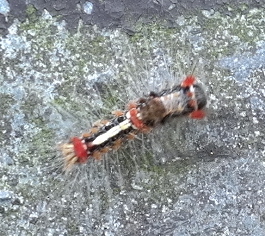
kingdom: Animalia
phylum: Arthropoda
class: Insecta
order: Lepidoptera
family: Erebidae
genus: Perina
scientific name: Perina nuda
